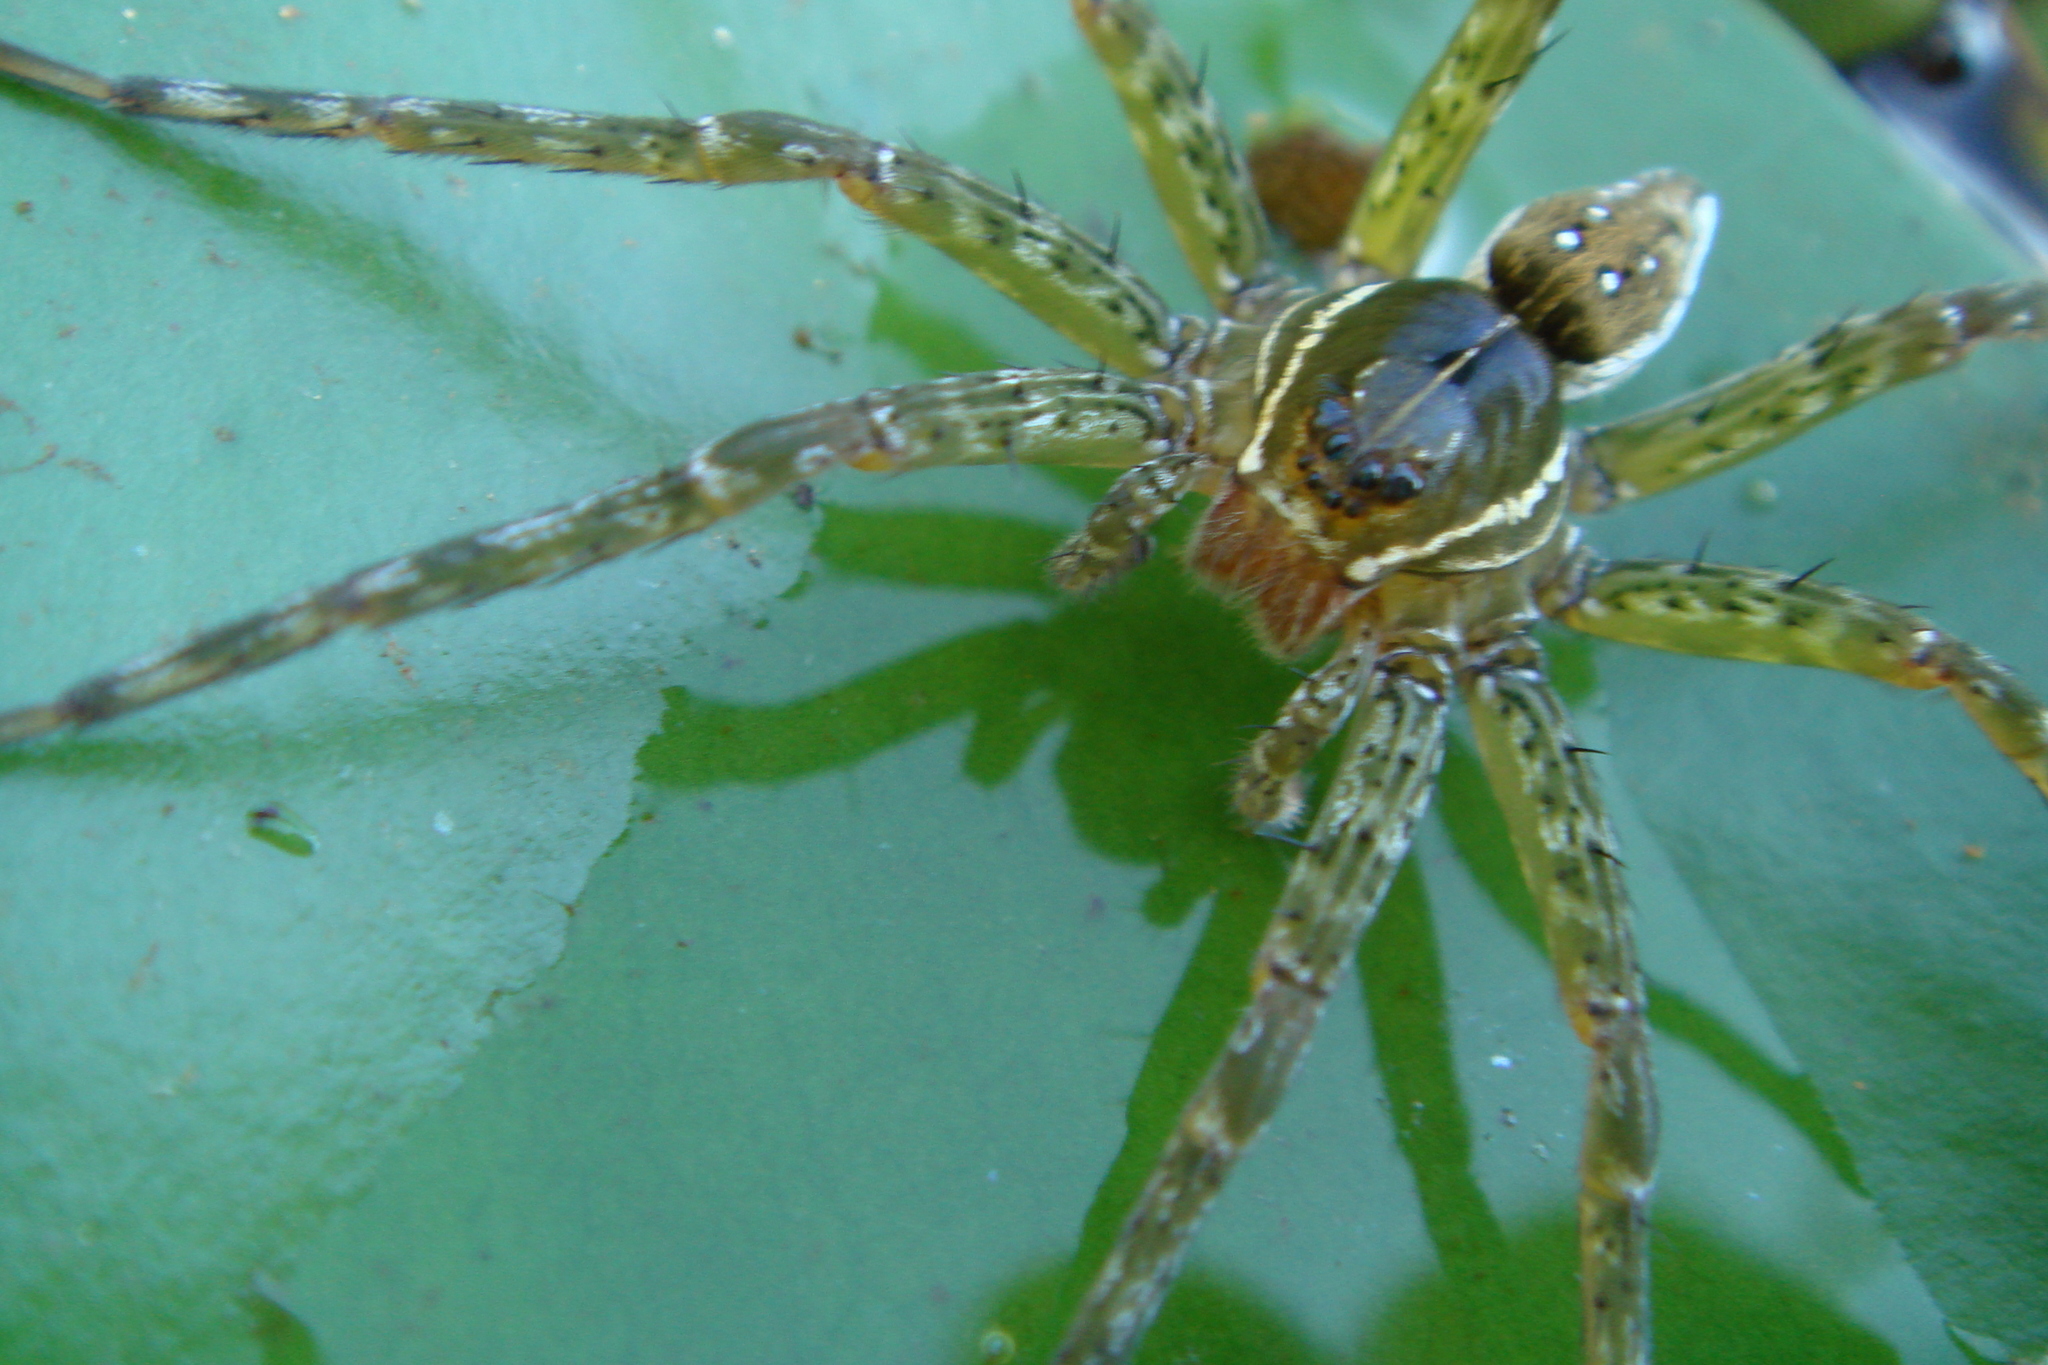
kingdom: Animalia
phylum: Arthropoda
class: Arachnida
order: Araneae
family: Pisauridae
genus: Dolomedes
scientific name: Dolomedes triton
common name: Six-spotted fishing spider
